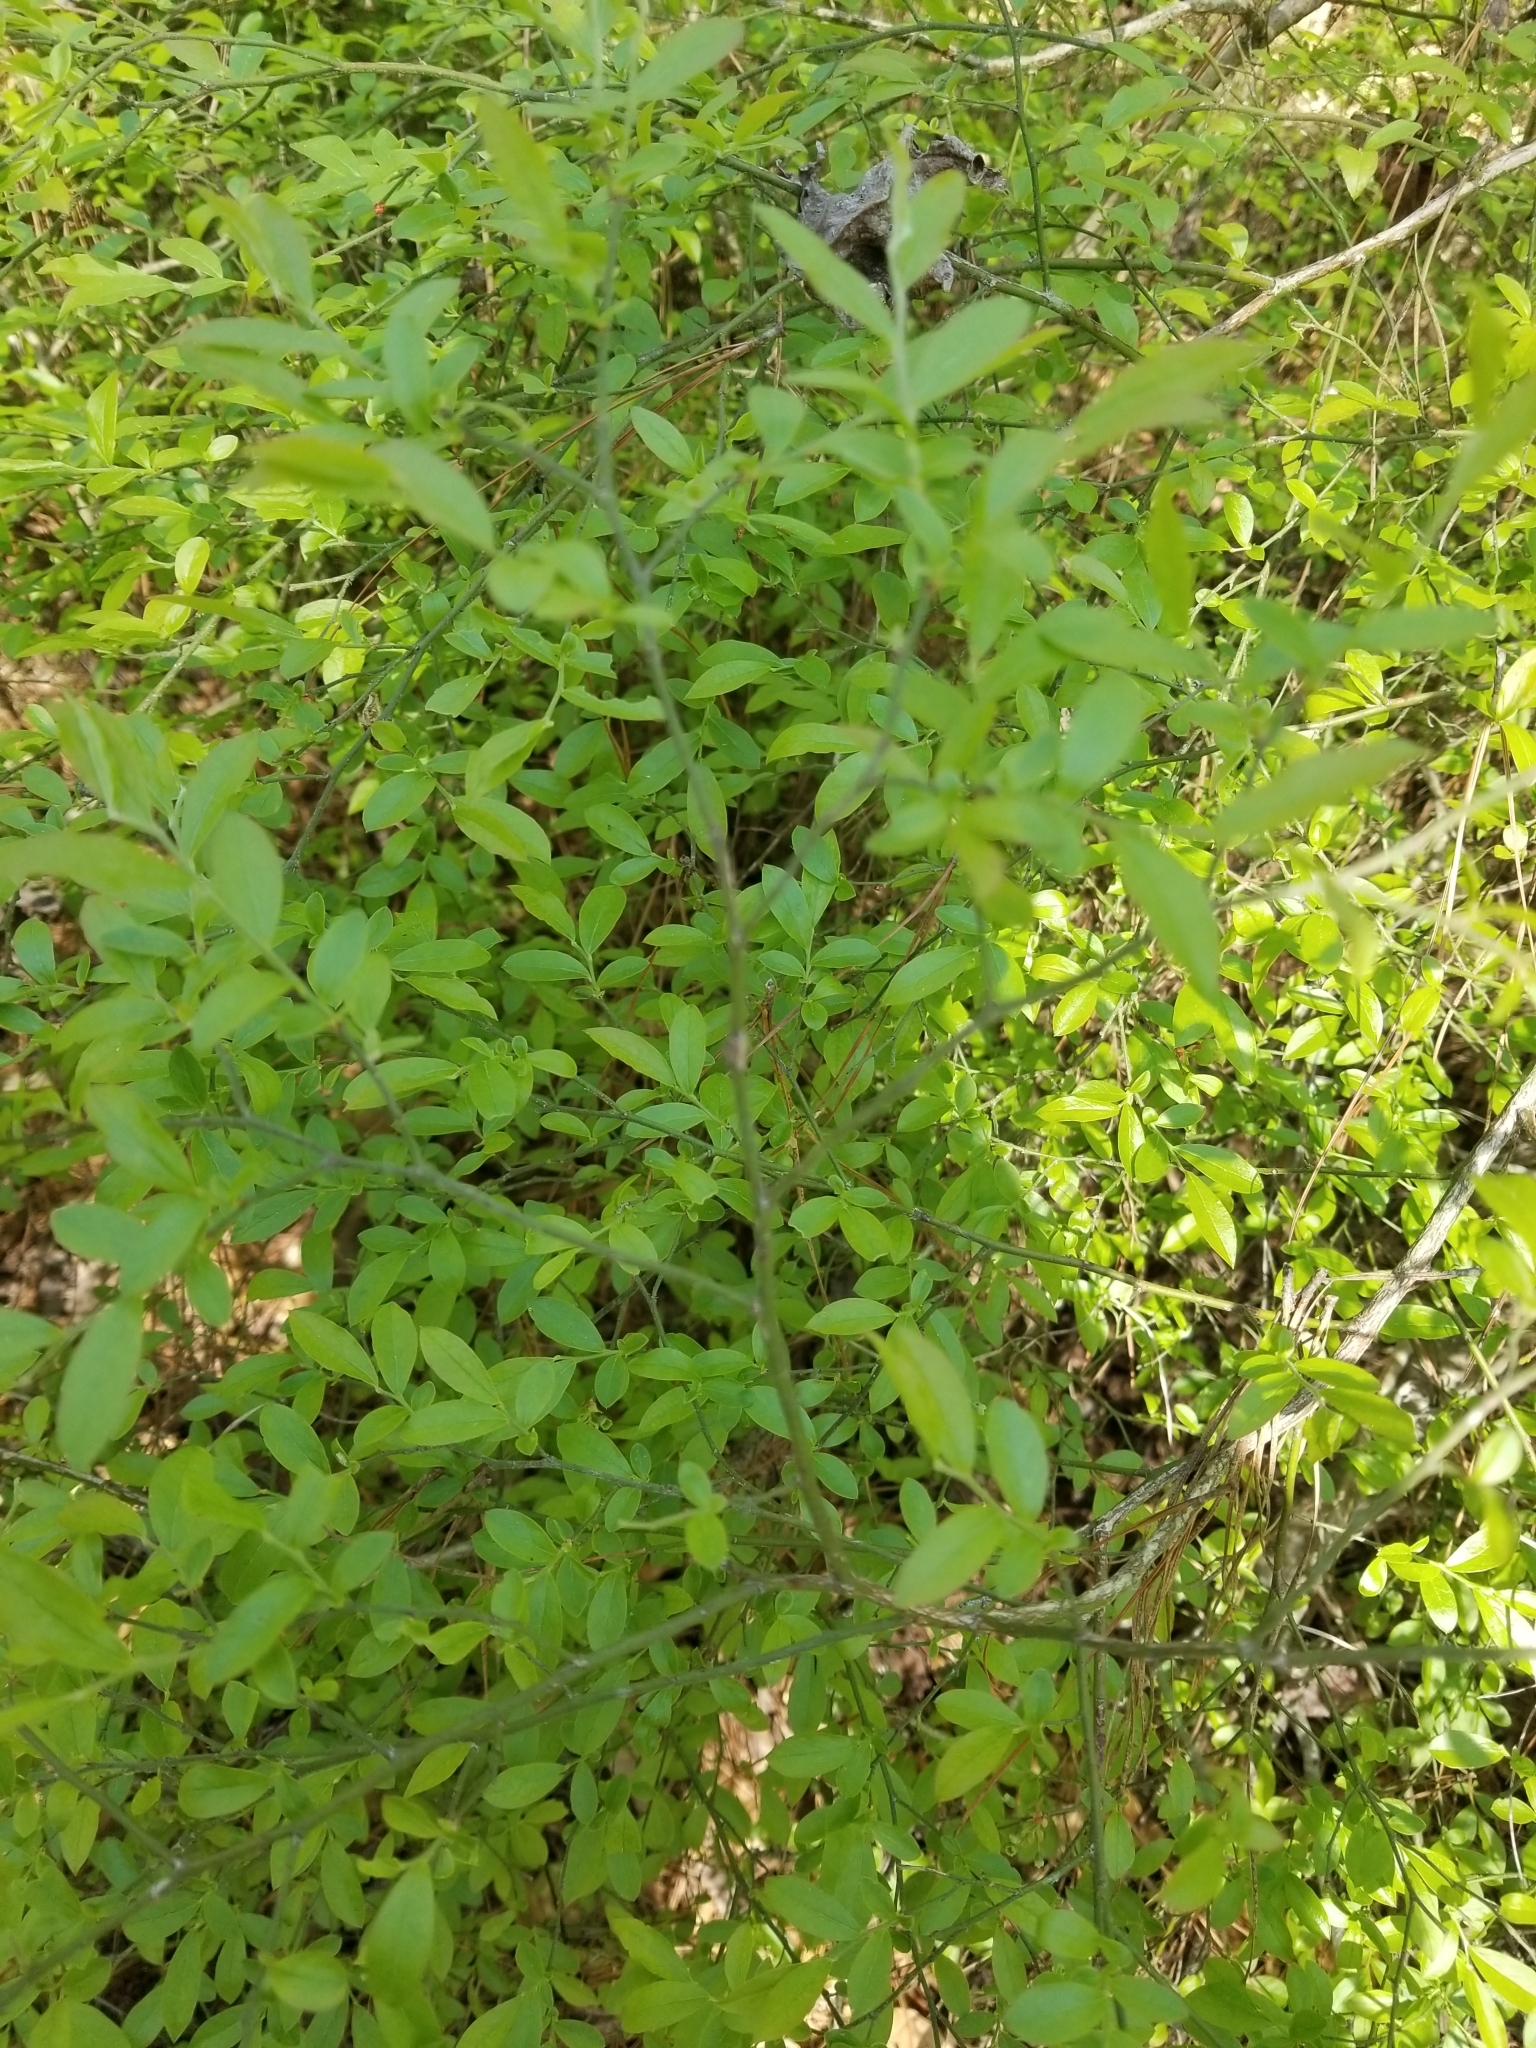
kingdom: Plantae
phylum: Tracheophyta
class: Magnoliopsida
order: Ericales
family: Ericaceae
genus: Vaccinium
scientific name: Vaccinium corymbosum
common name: Blueberry
